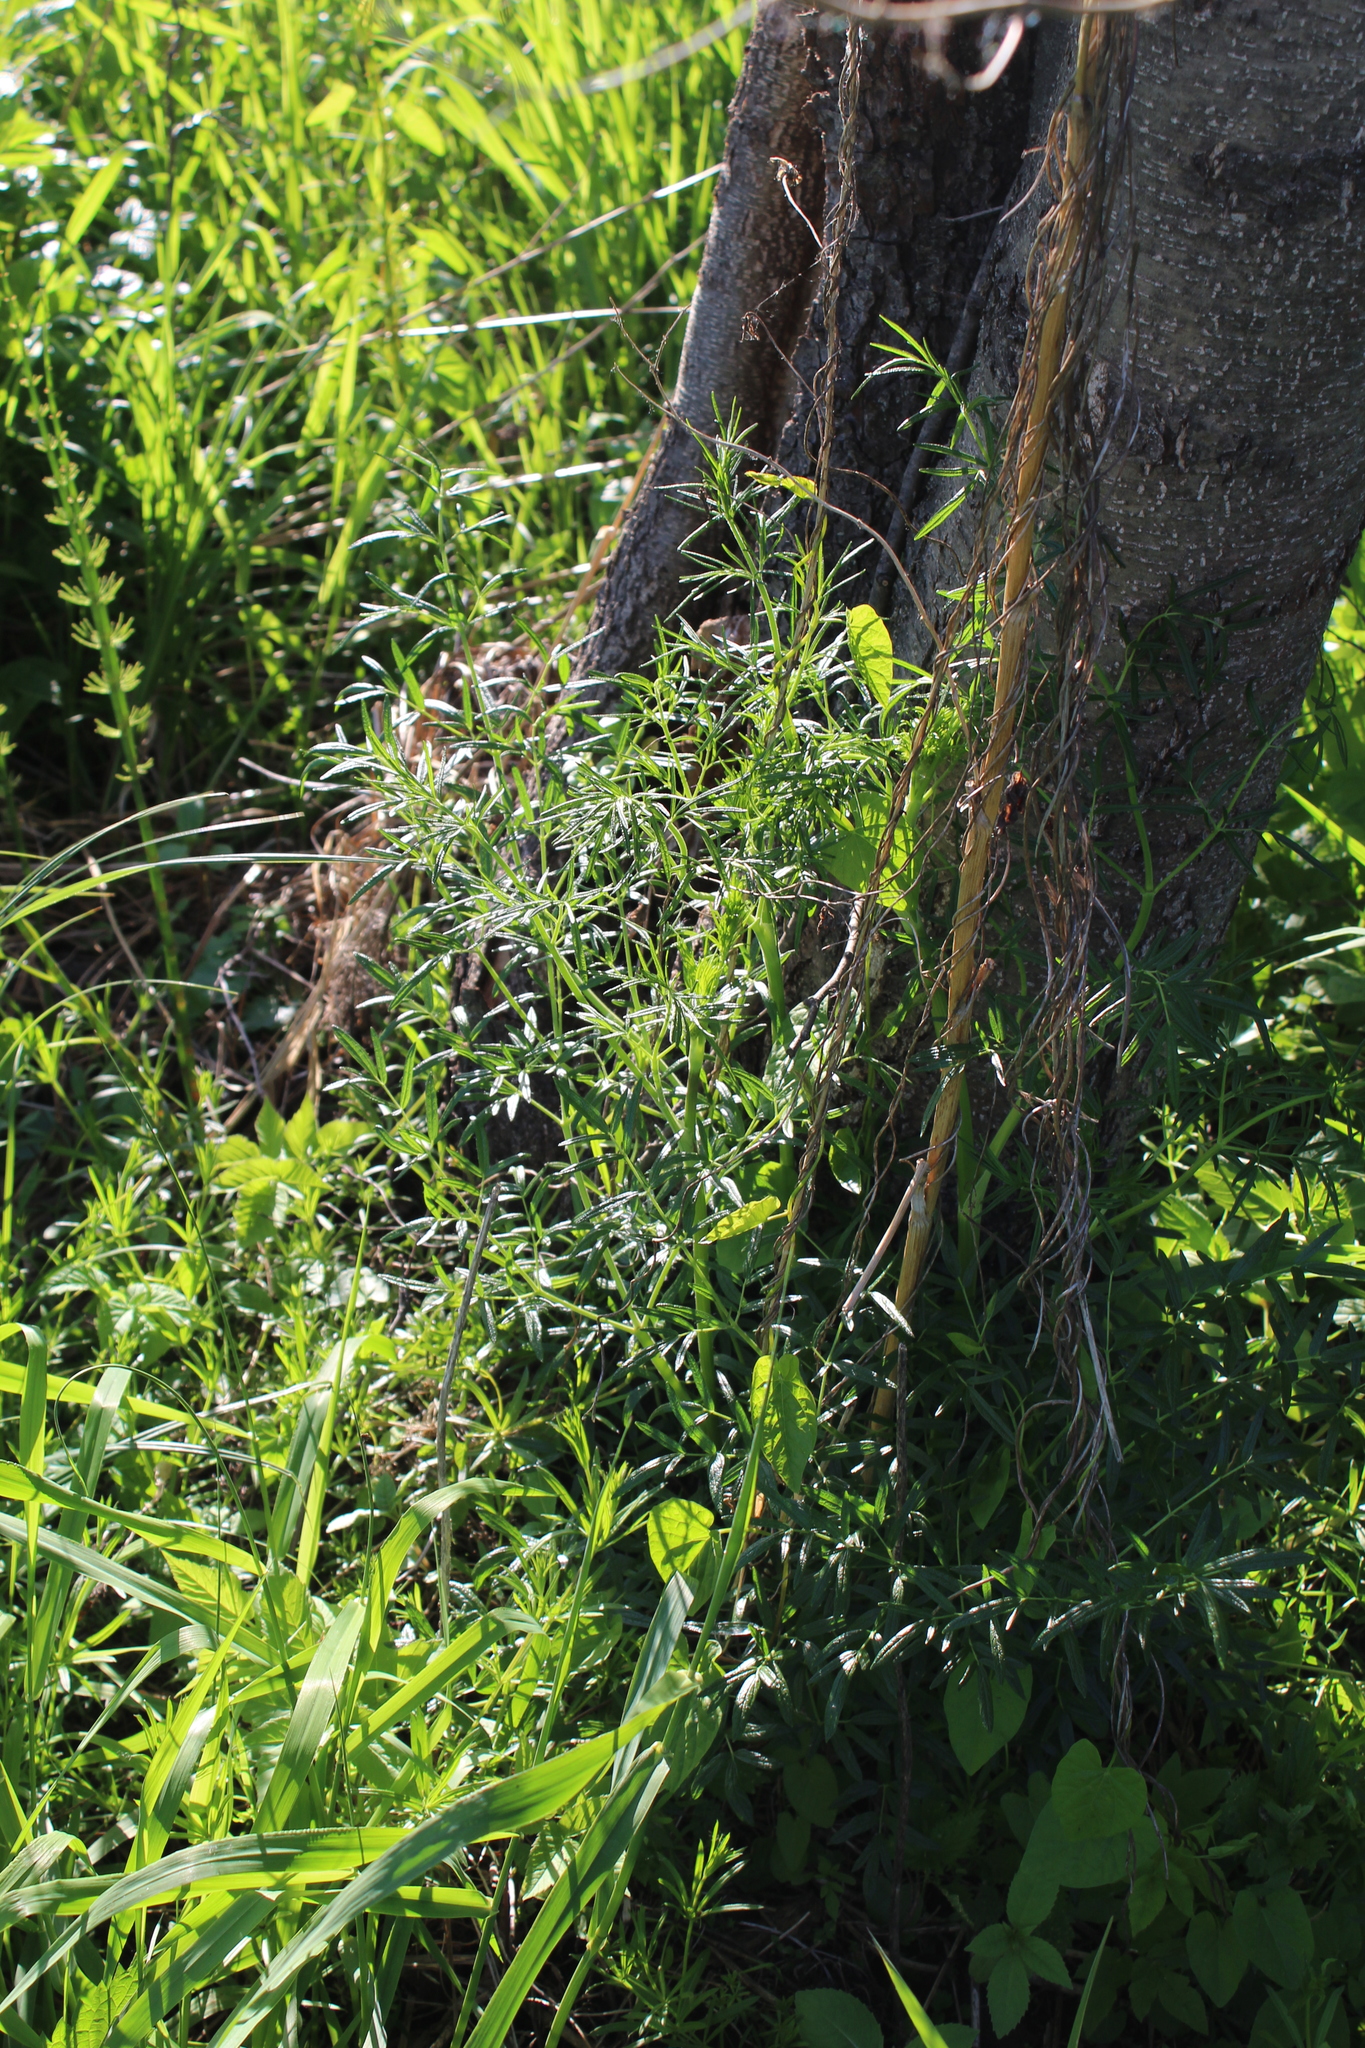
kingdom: Plantae
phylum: Tracheophyta
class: Magnoliopsida
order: Ranunculales
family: Ranunculaceae
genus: Thalictrum
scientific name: Thalictrum lucidum
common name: Shining meadow-rue
